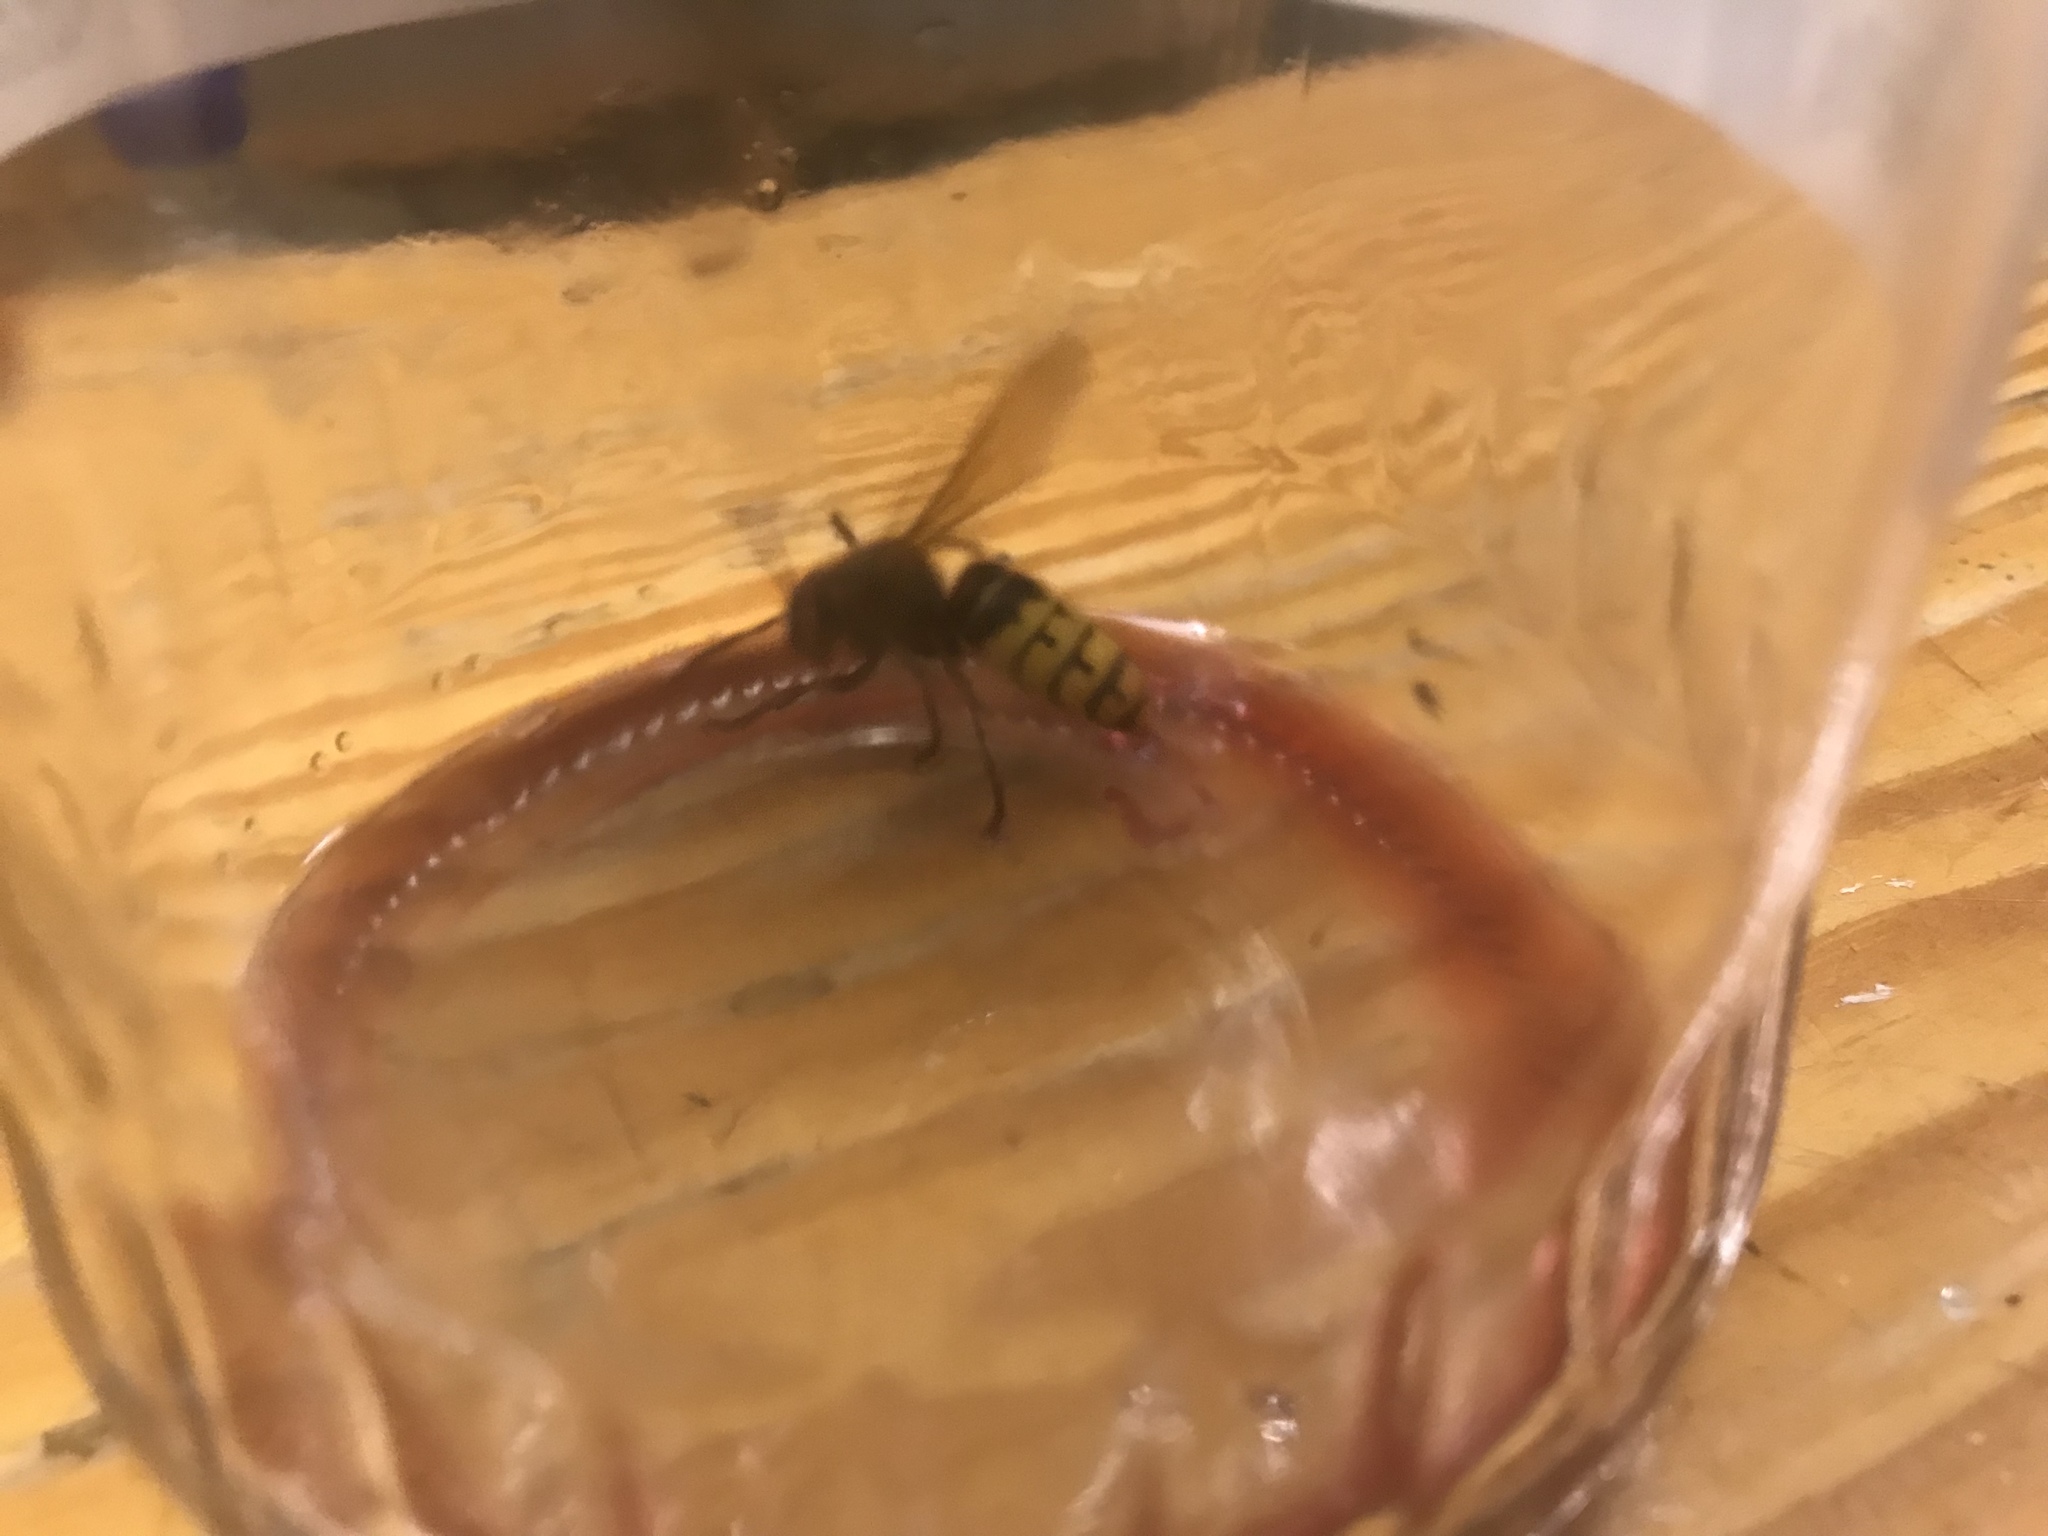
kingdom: Animalia
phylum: Arthropoda
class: Insecta
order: Hymenoptera
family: Vespidae
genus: Vespa
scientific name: Vespa crabro
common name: Hornet
